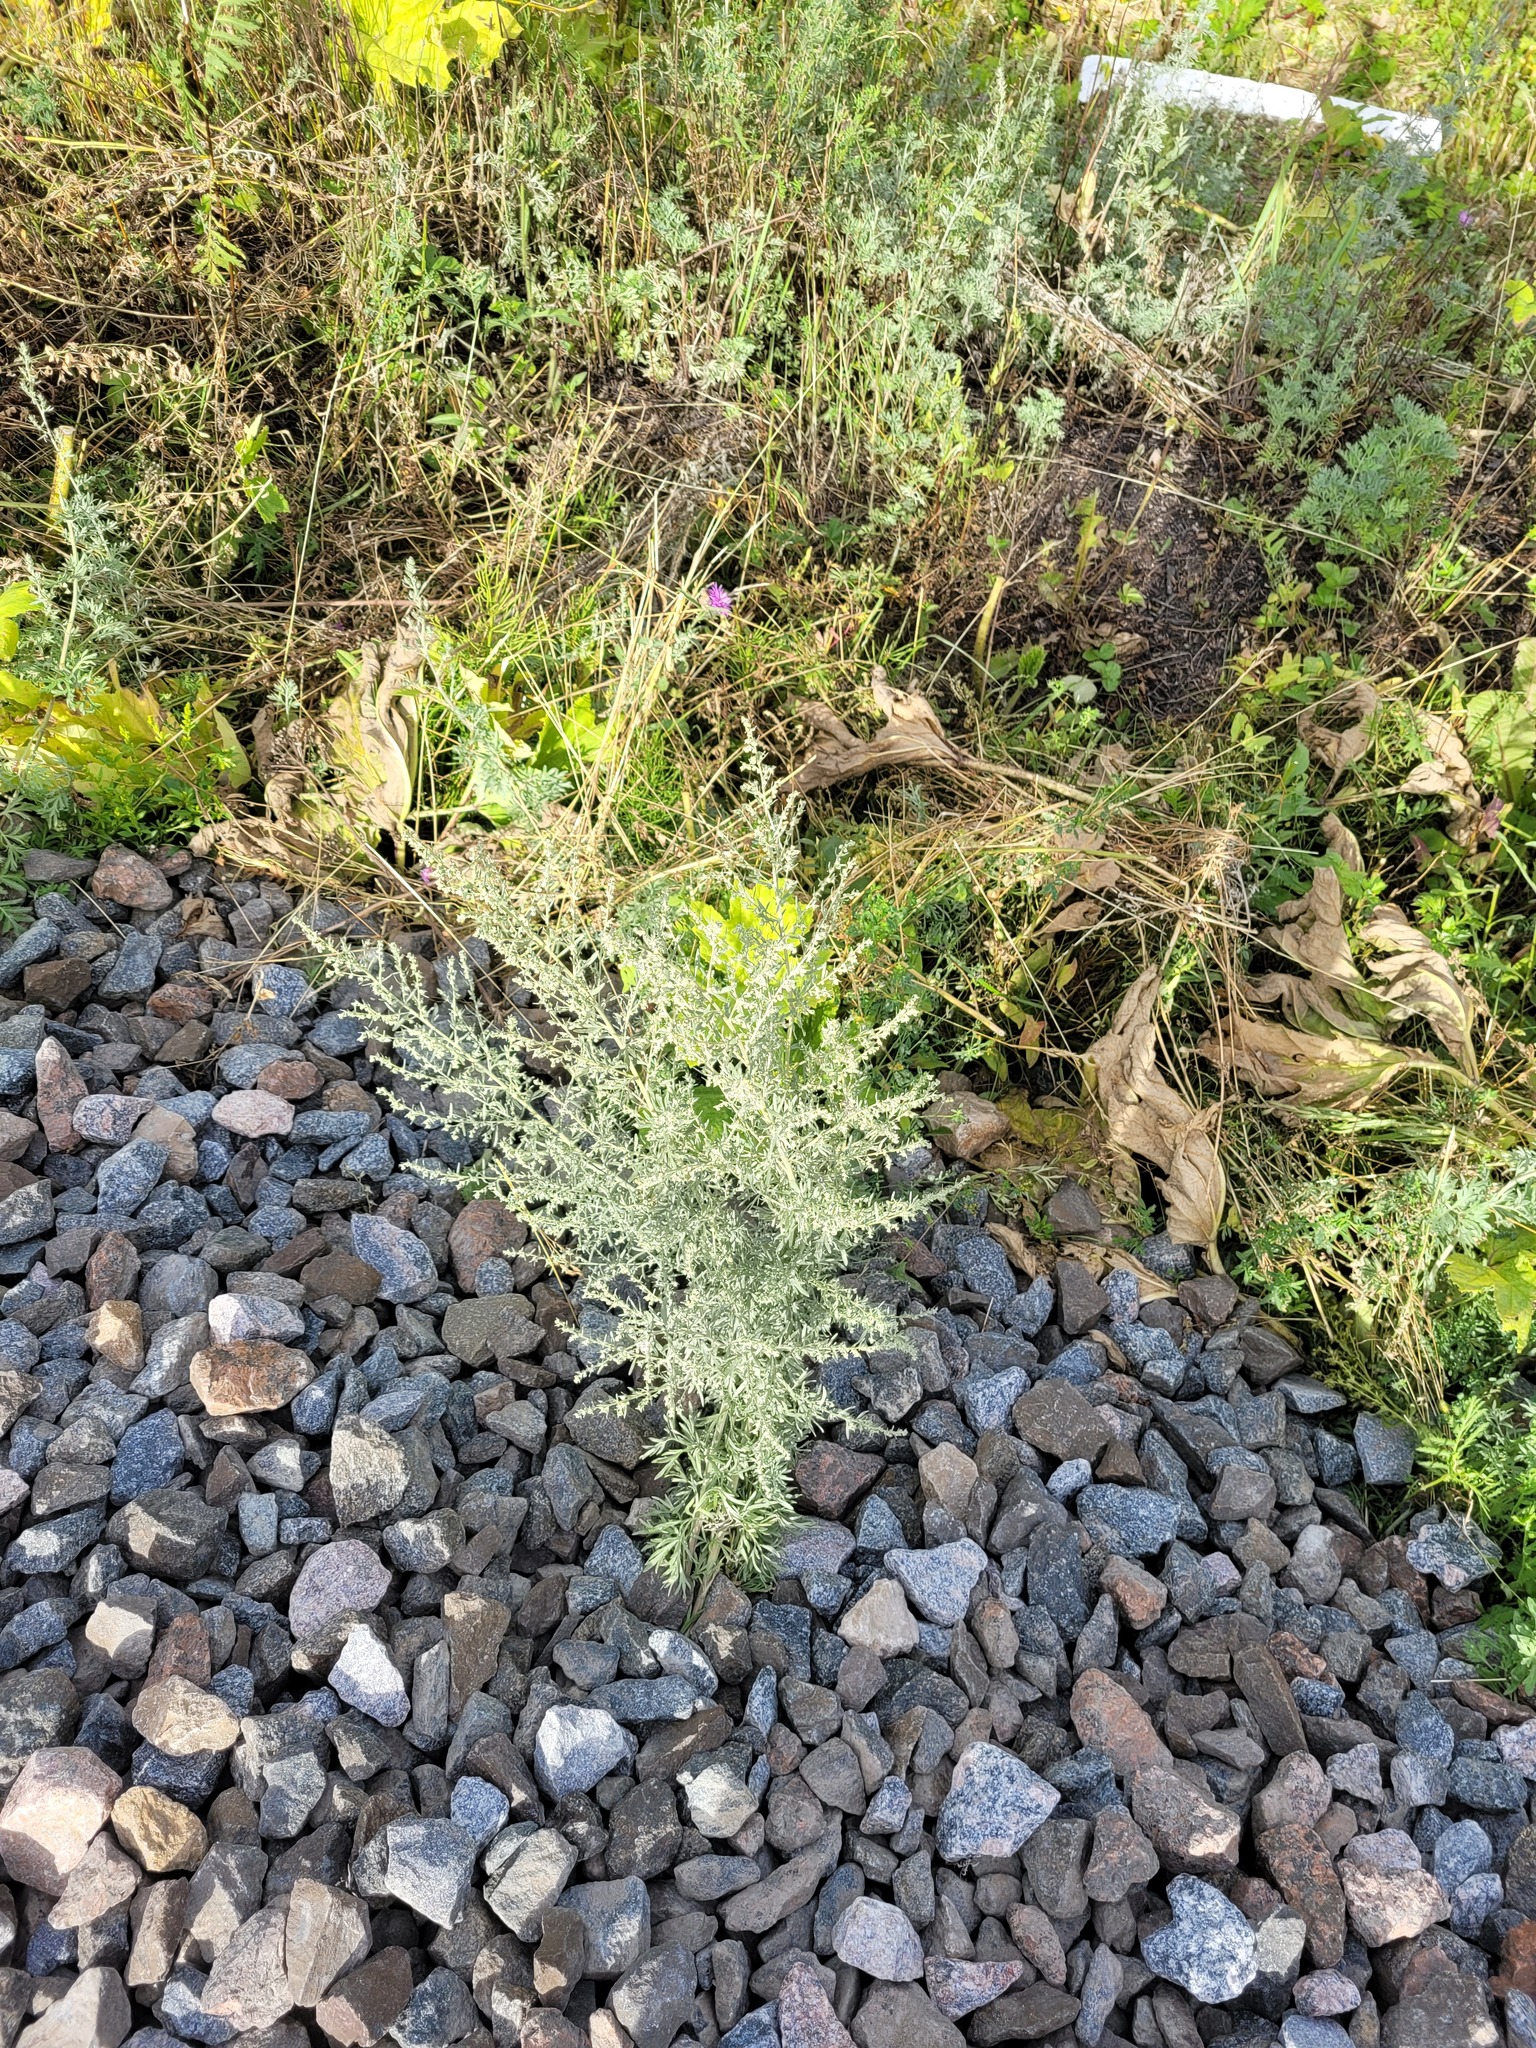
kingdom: Plantae
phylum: Tracheophyta
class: Magnoliopsida
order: Asterales
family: Asteraceae
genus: Artemisia
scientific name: Artemisia absinthium
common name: Wormwood
